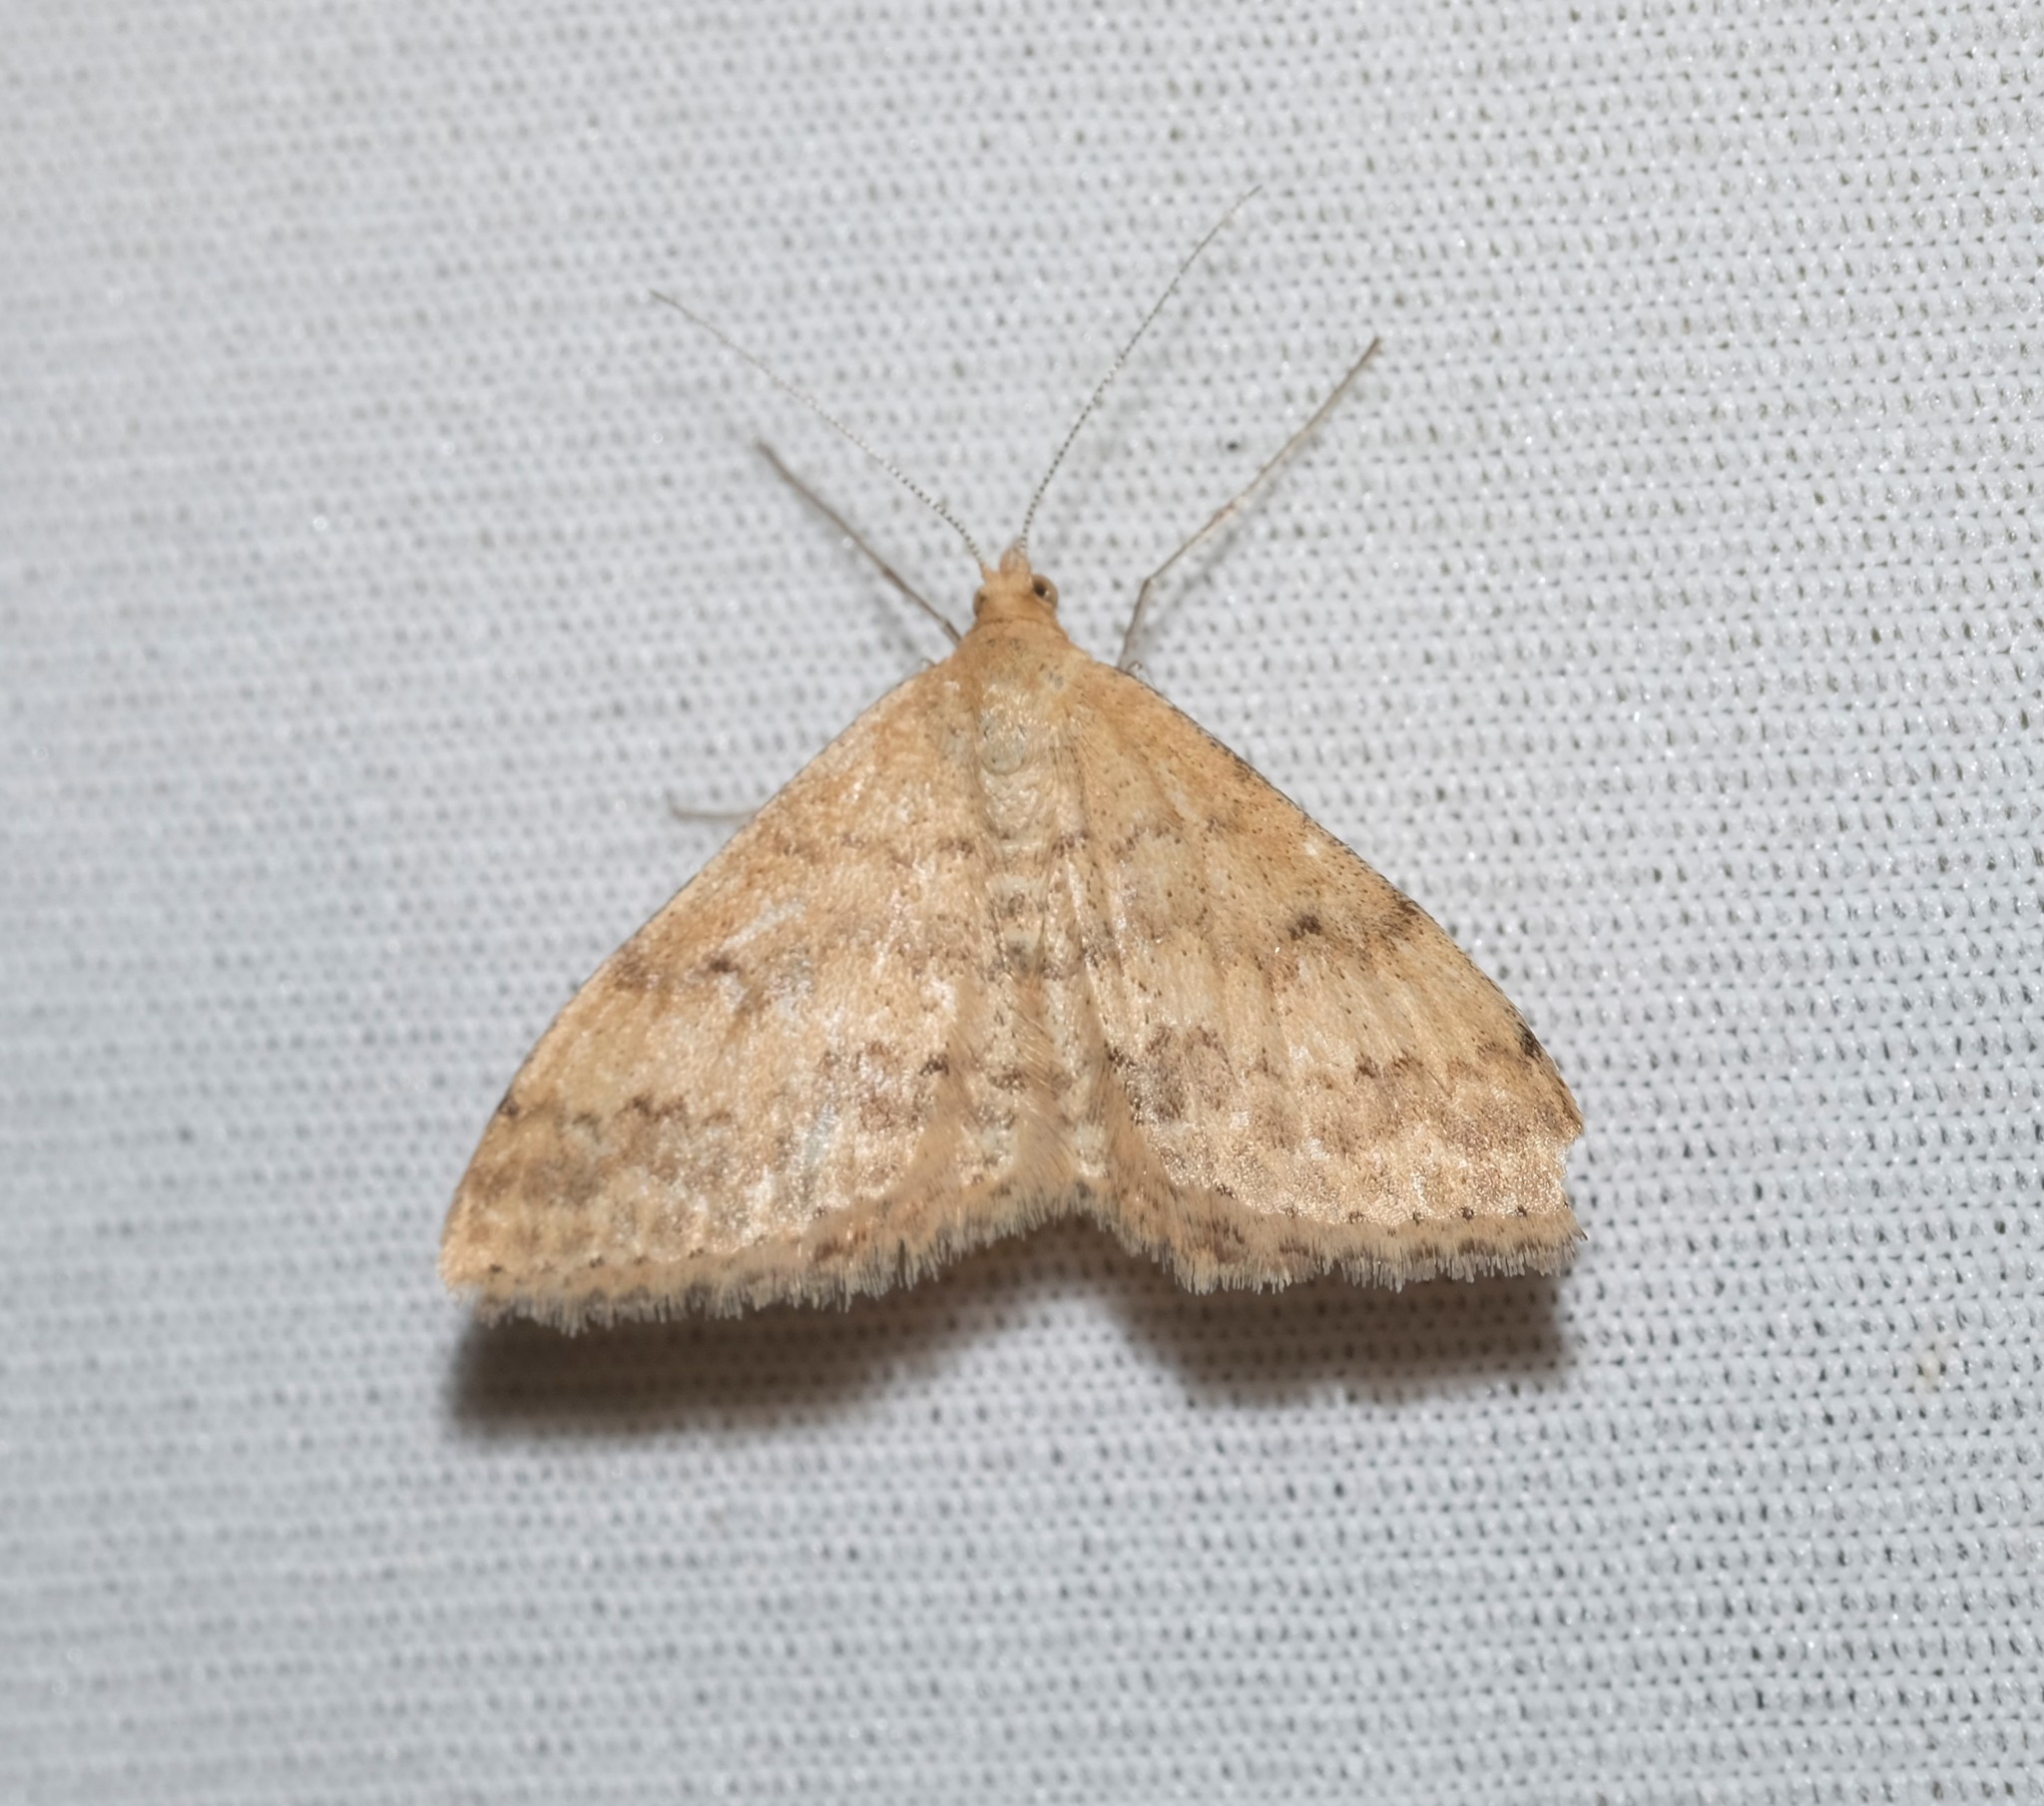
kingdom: Animalia
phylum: Arthropoda
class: Insecta
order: Lepidoptera
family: Geometridae
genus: Scopula
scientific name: Scopula rubraria
